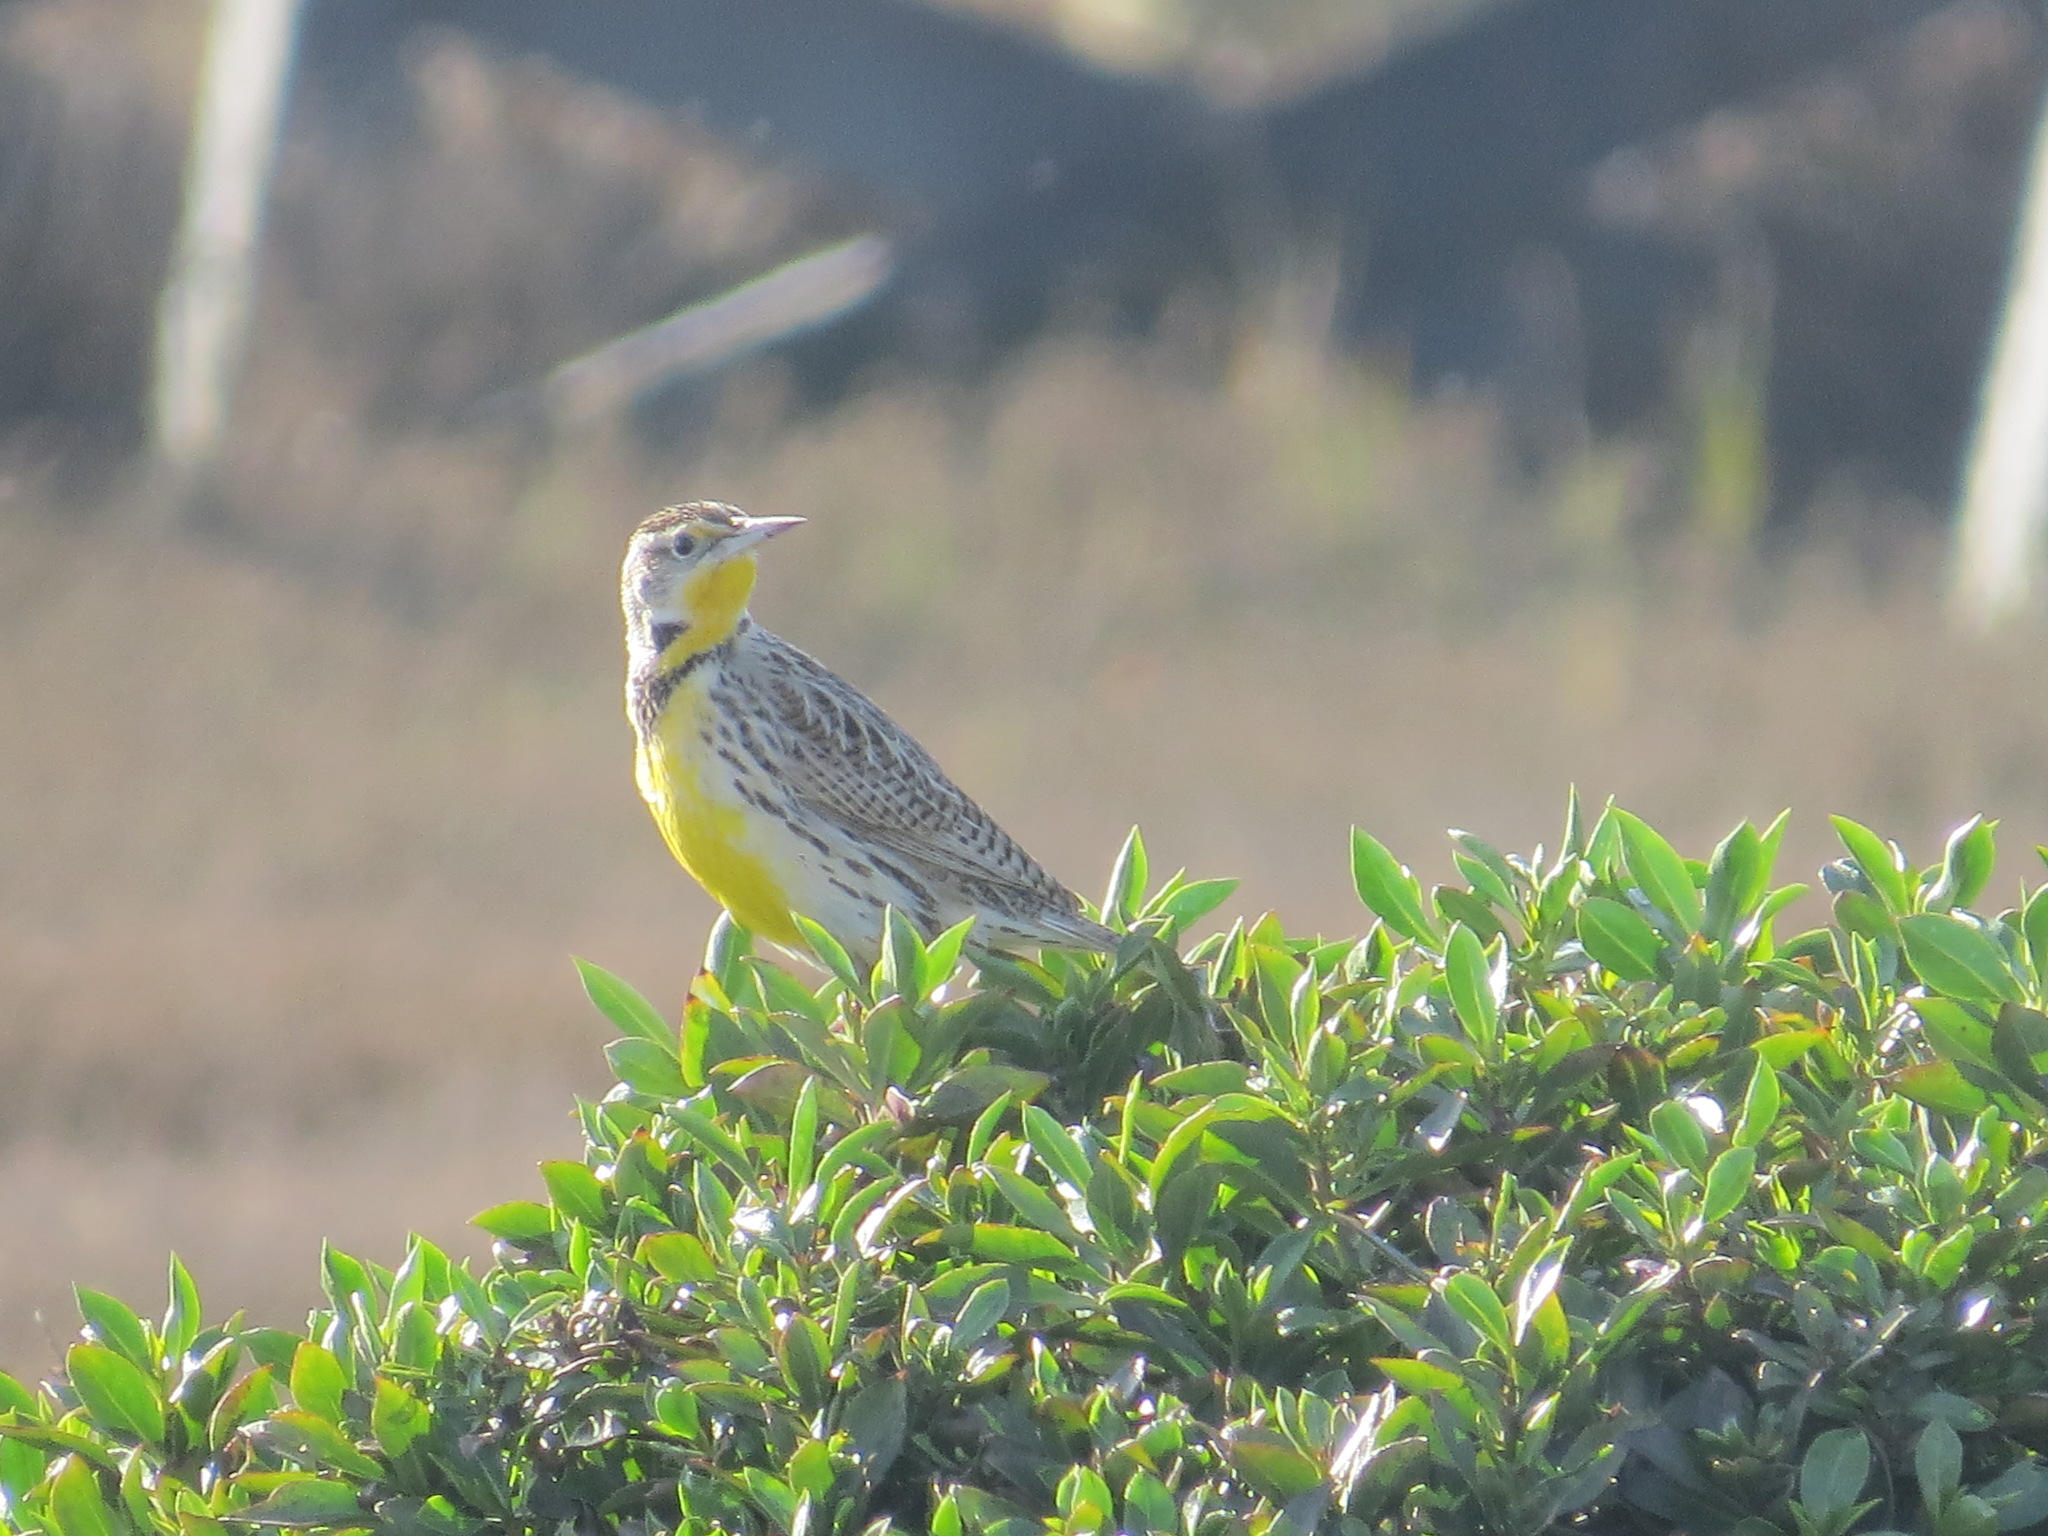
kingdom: Animalia
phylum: Chordata
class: Aves
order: Passeriformes
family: Icteridae
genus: Sturnella
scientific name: Sturnella neglecta
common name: Western meadowlark
